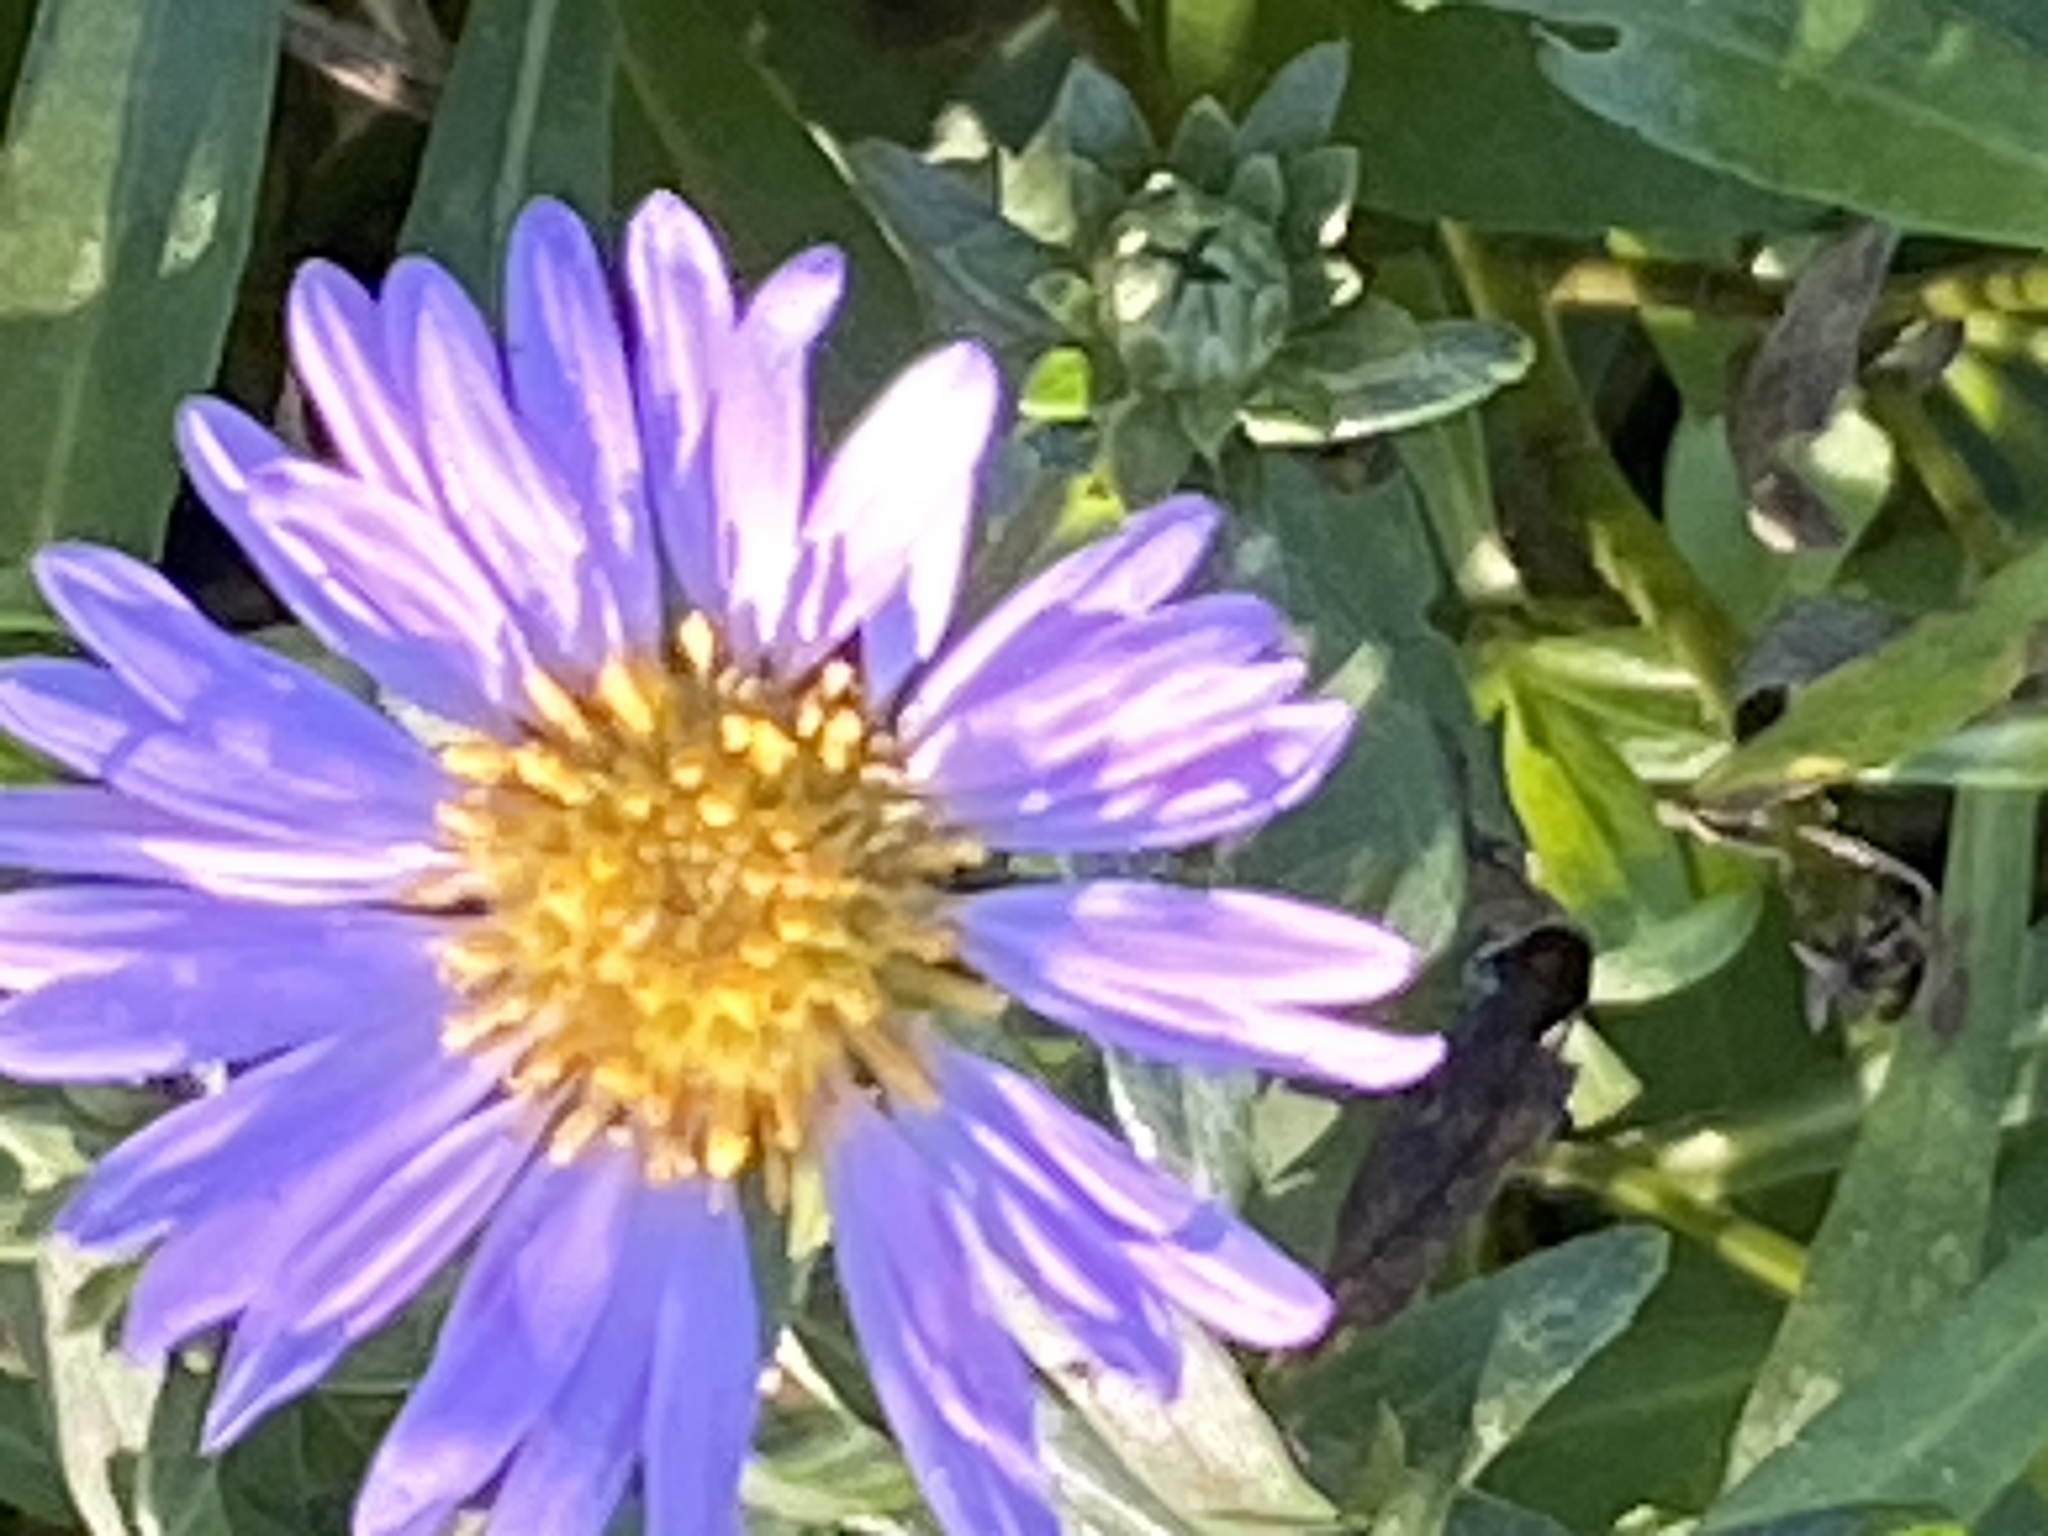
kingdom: Plantae
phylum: Tracheophyta
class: Magnoliopsida
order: Asterales
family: Asteraceae
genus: Symphyotrichum
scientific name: Symphyotrichum chilense
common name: Pacific aster
